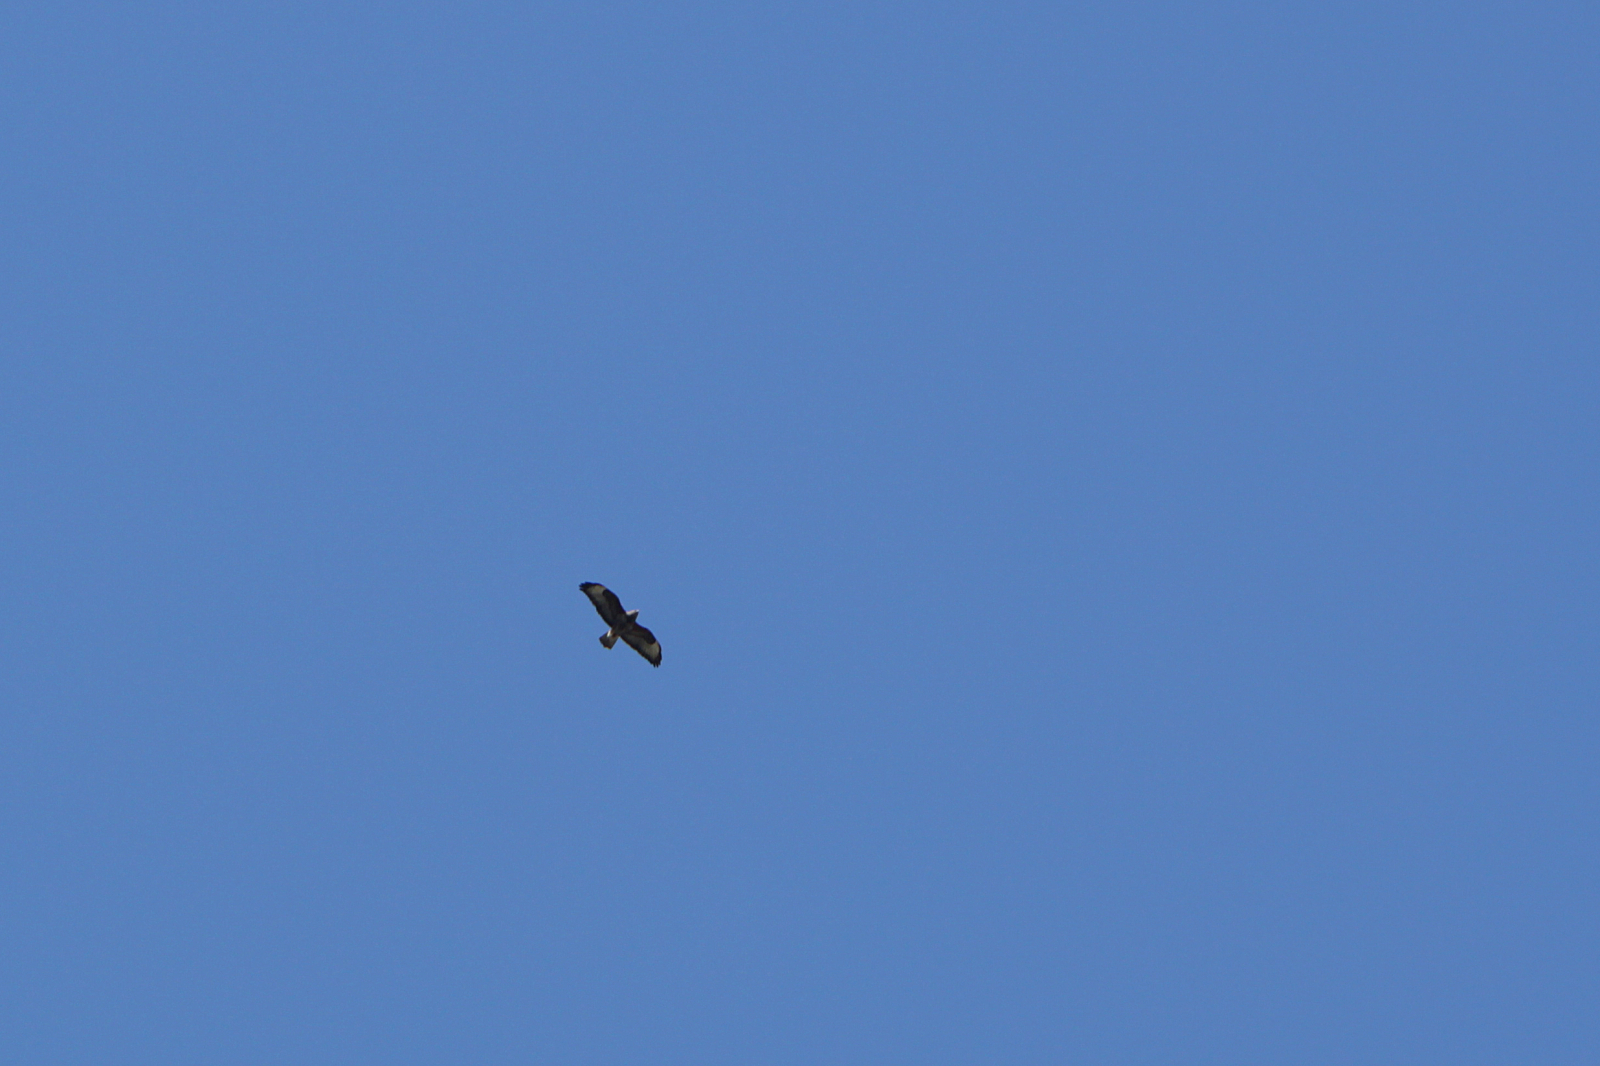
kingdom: Animalia
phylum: Chordata
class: Aves
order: Accipitriformes
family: Accipitridae
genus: Buteo
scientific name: Buteo buteo
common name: Common buzzard
